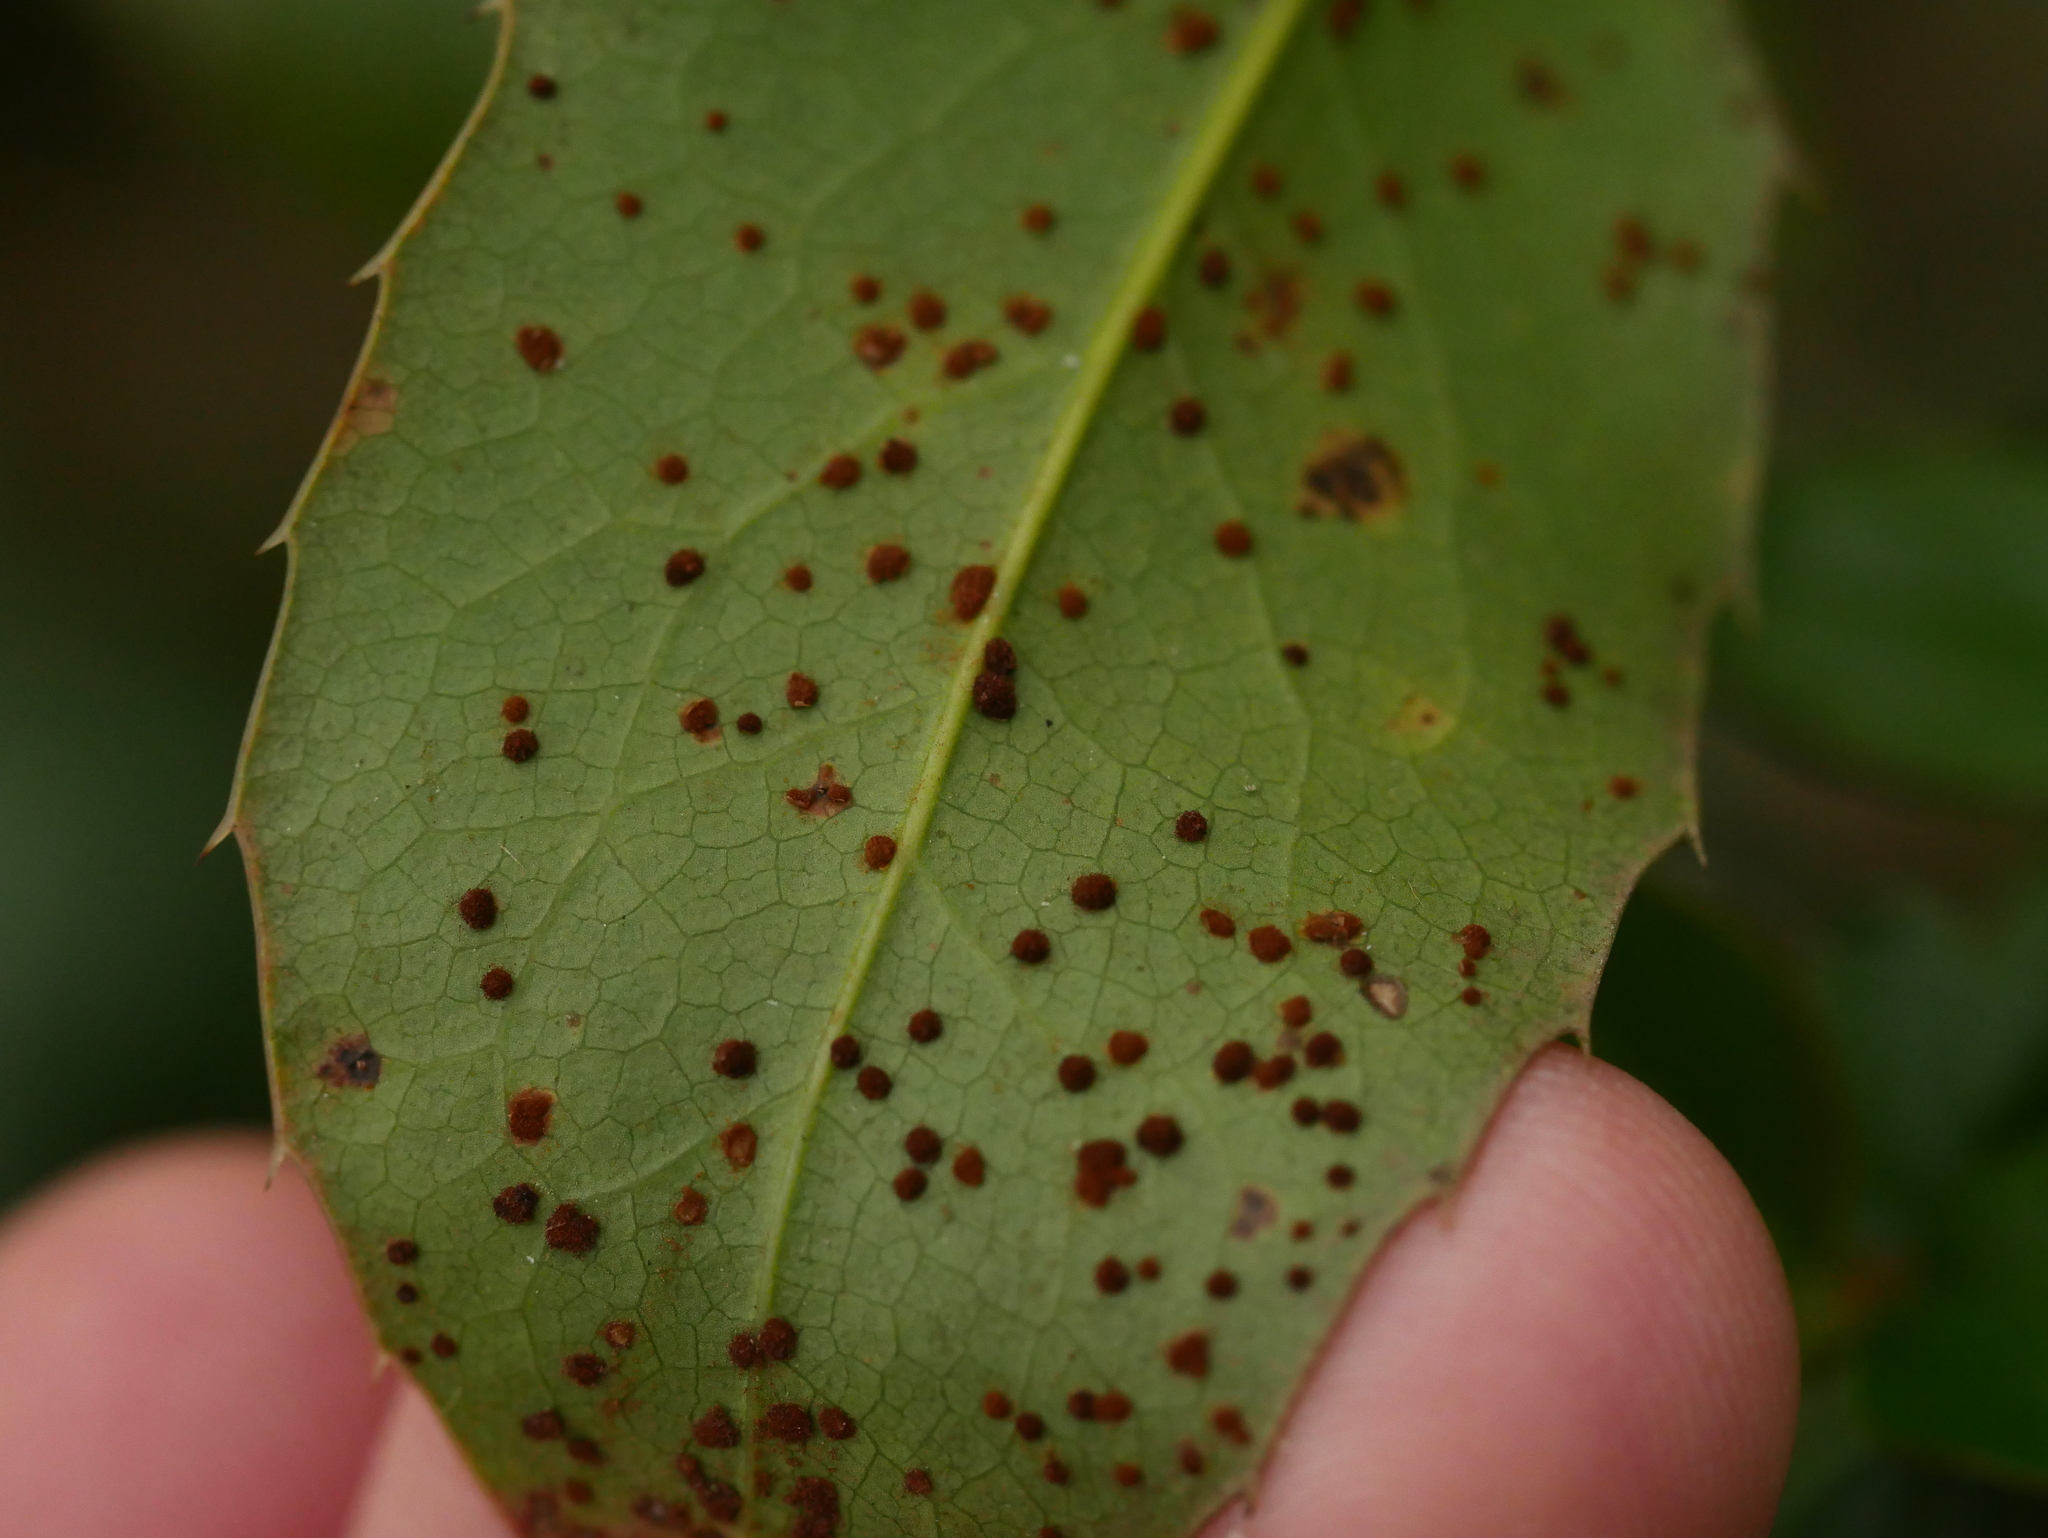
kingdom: Fungi
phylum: Basidiomycota
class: Pucciniomycetes
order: Pucciniales
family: Pucciniaceae
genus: Cumminsiella
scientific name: Cumminsiella mirabilissima
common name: Mahonia rust
